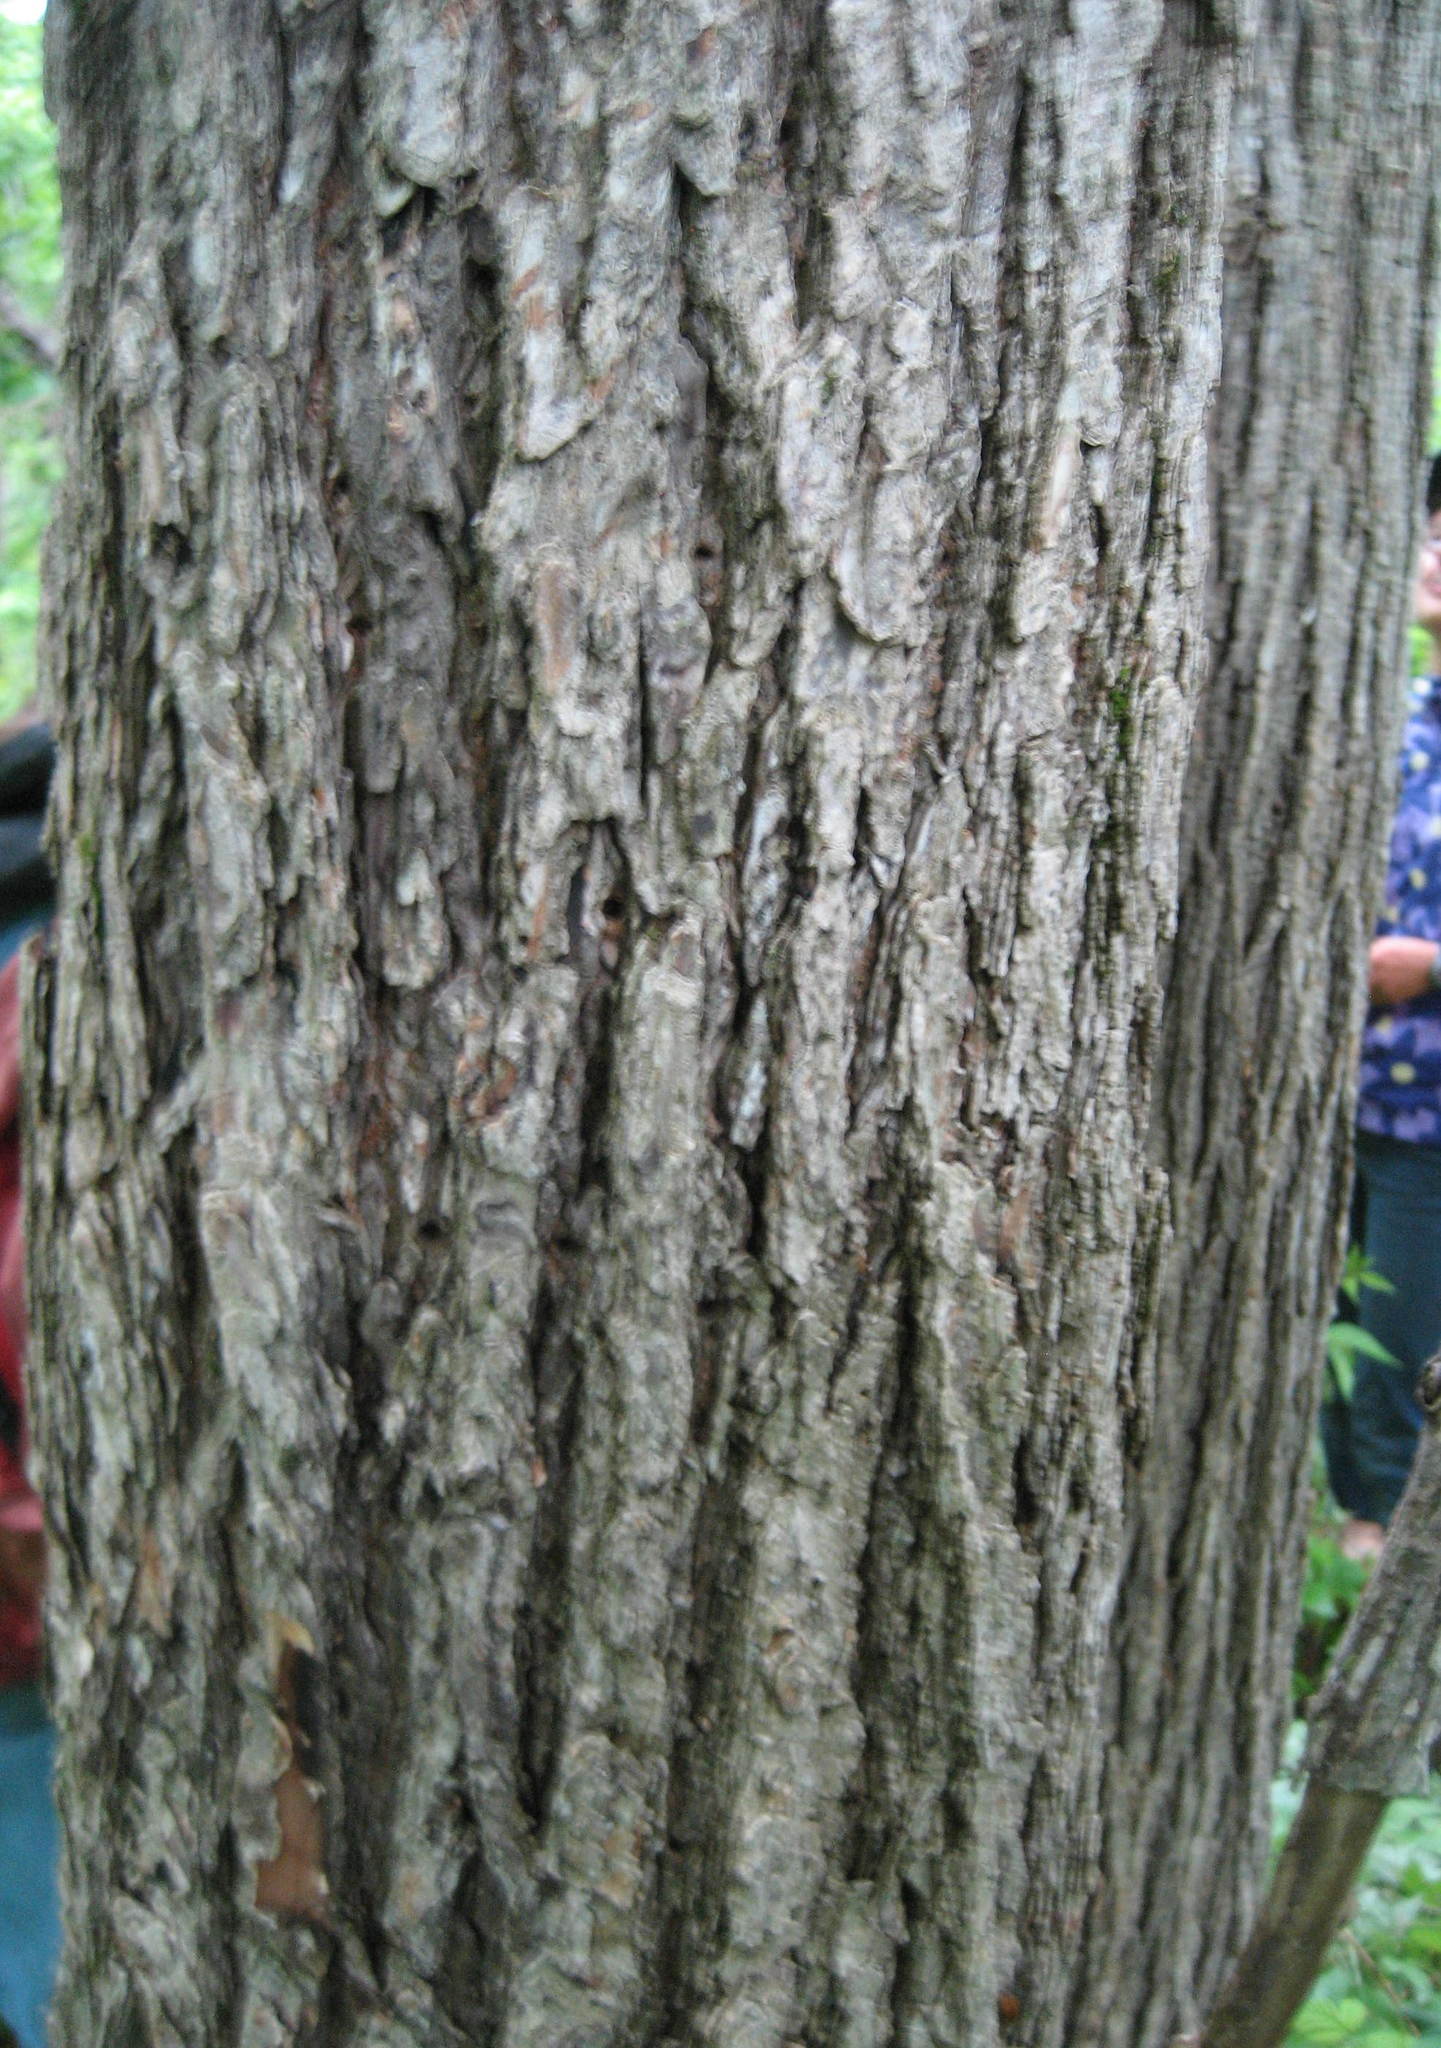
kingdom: Plantae
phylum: Tracheophyta
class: Magnoliopsida
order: Rosales
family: Ulmaceae
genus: Ulmus
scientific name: Ulmus thomasii
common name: Rock elm
